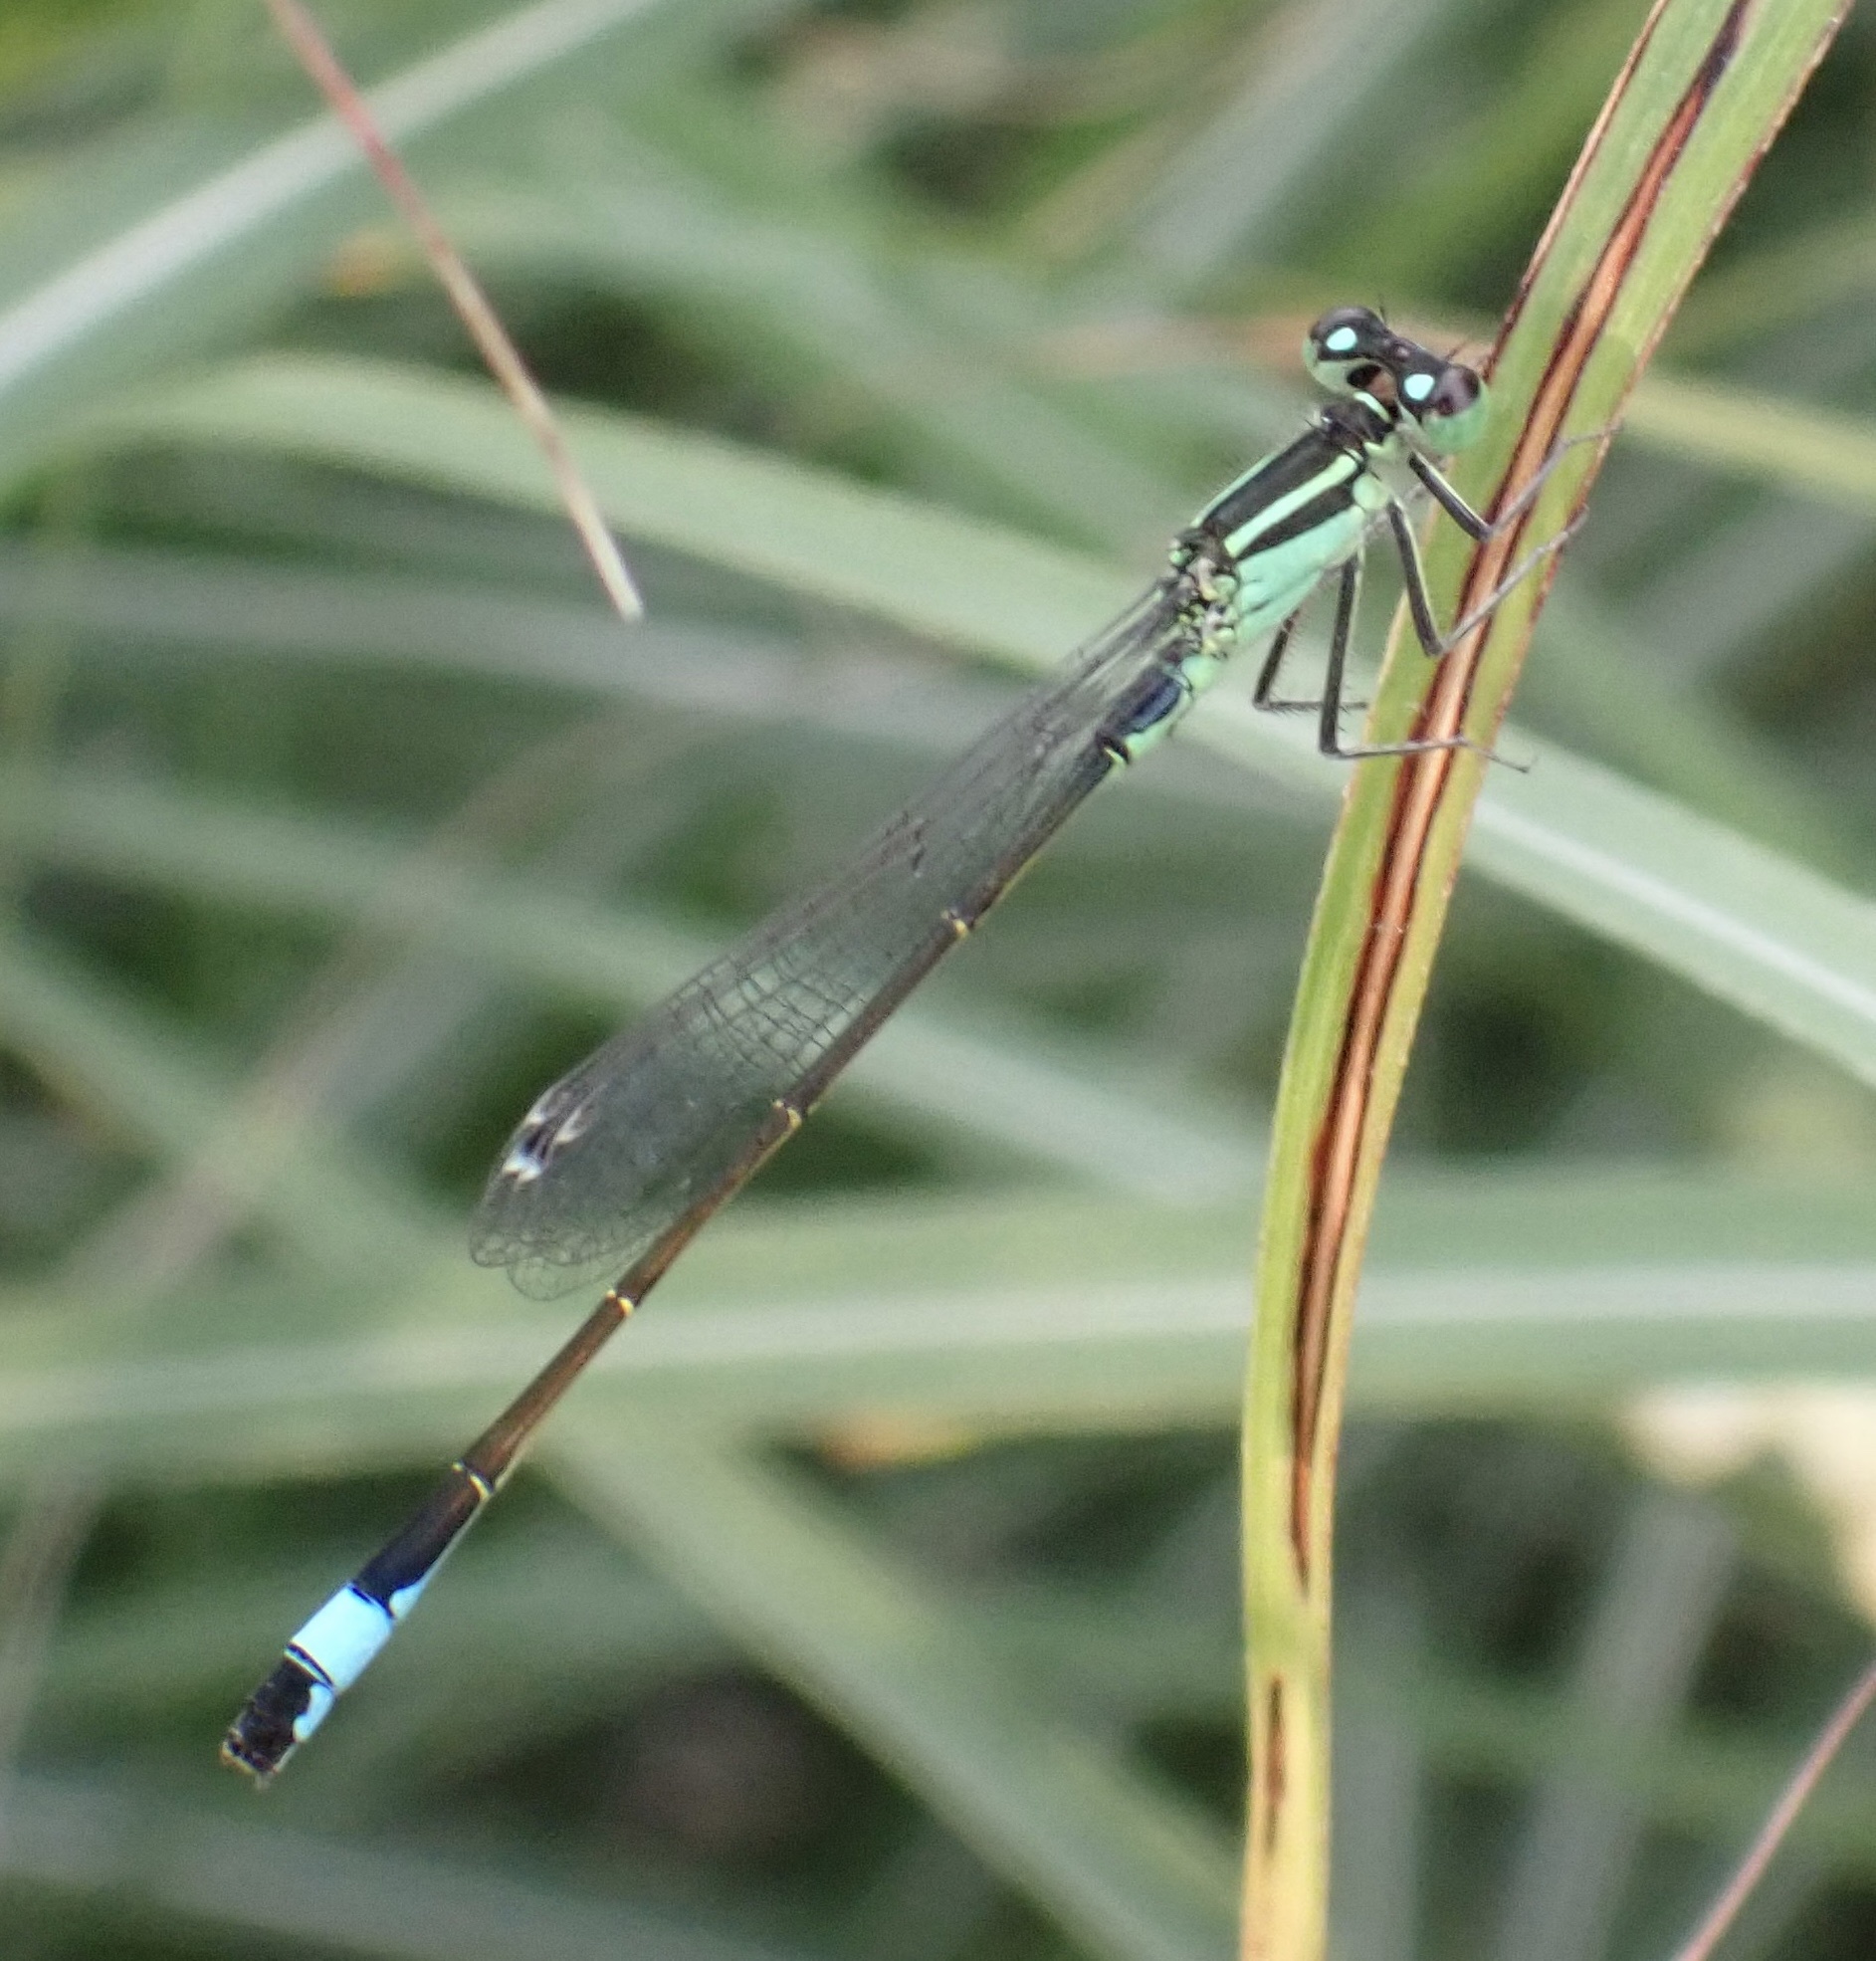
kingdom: Animalia
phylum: Arthropoda
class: Insecta
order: Odonata
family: Coenagrionidae
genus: Ischnura
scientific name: Ischnura elegans
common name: Blue-tailed damselfly
